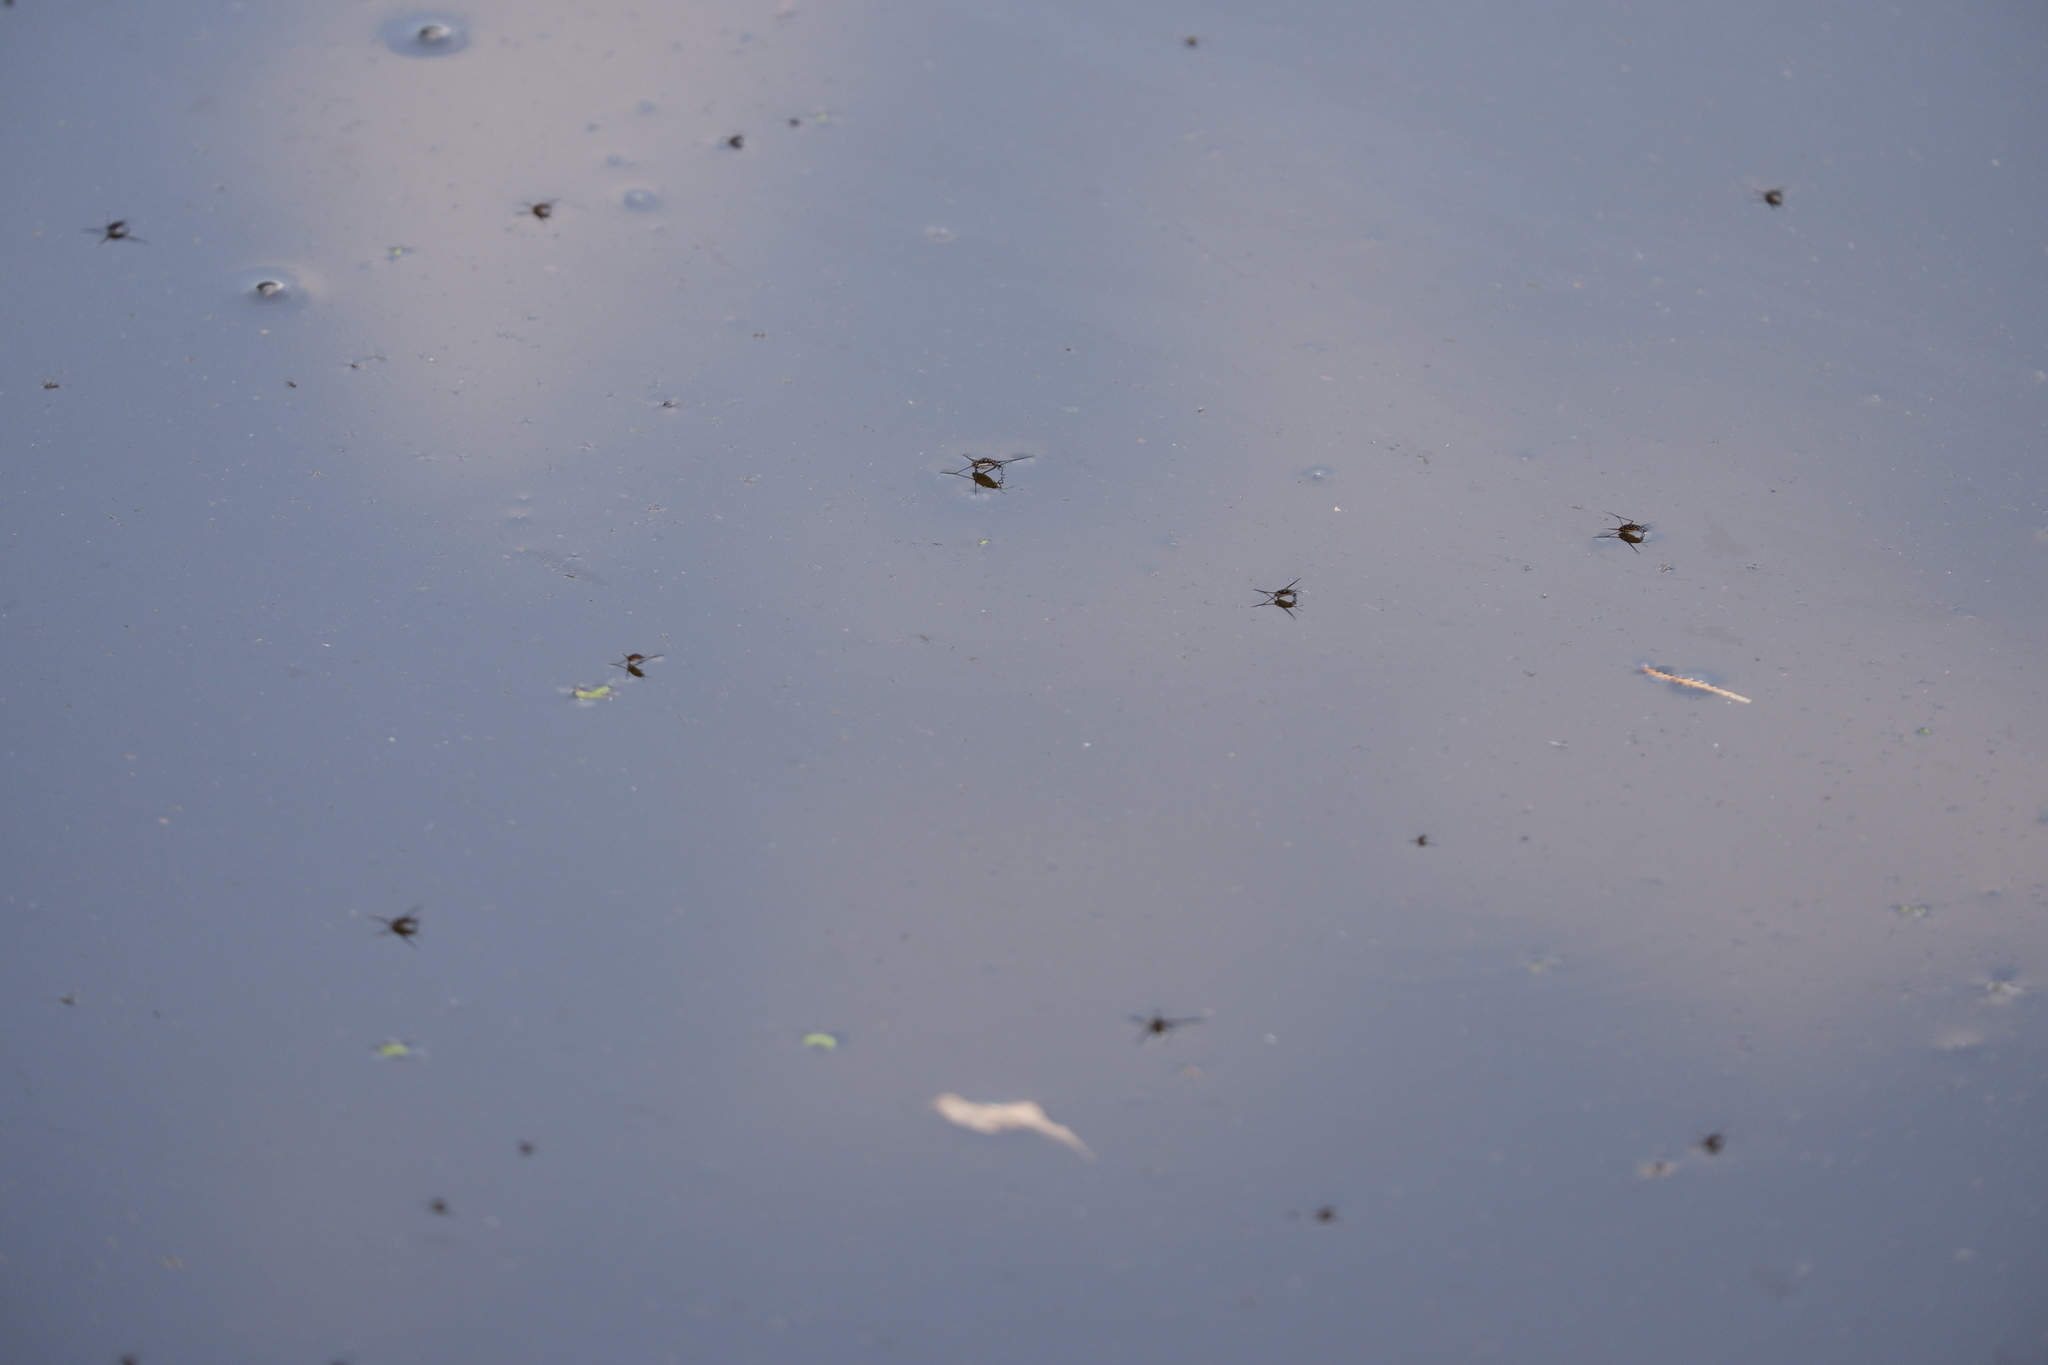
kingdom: Animalia
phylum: Arthropoda
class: Insecta
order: Hemiptera
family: Gerridae
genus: Trepobates
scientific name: Trepobates
